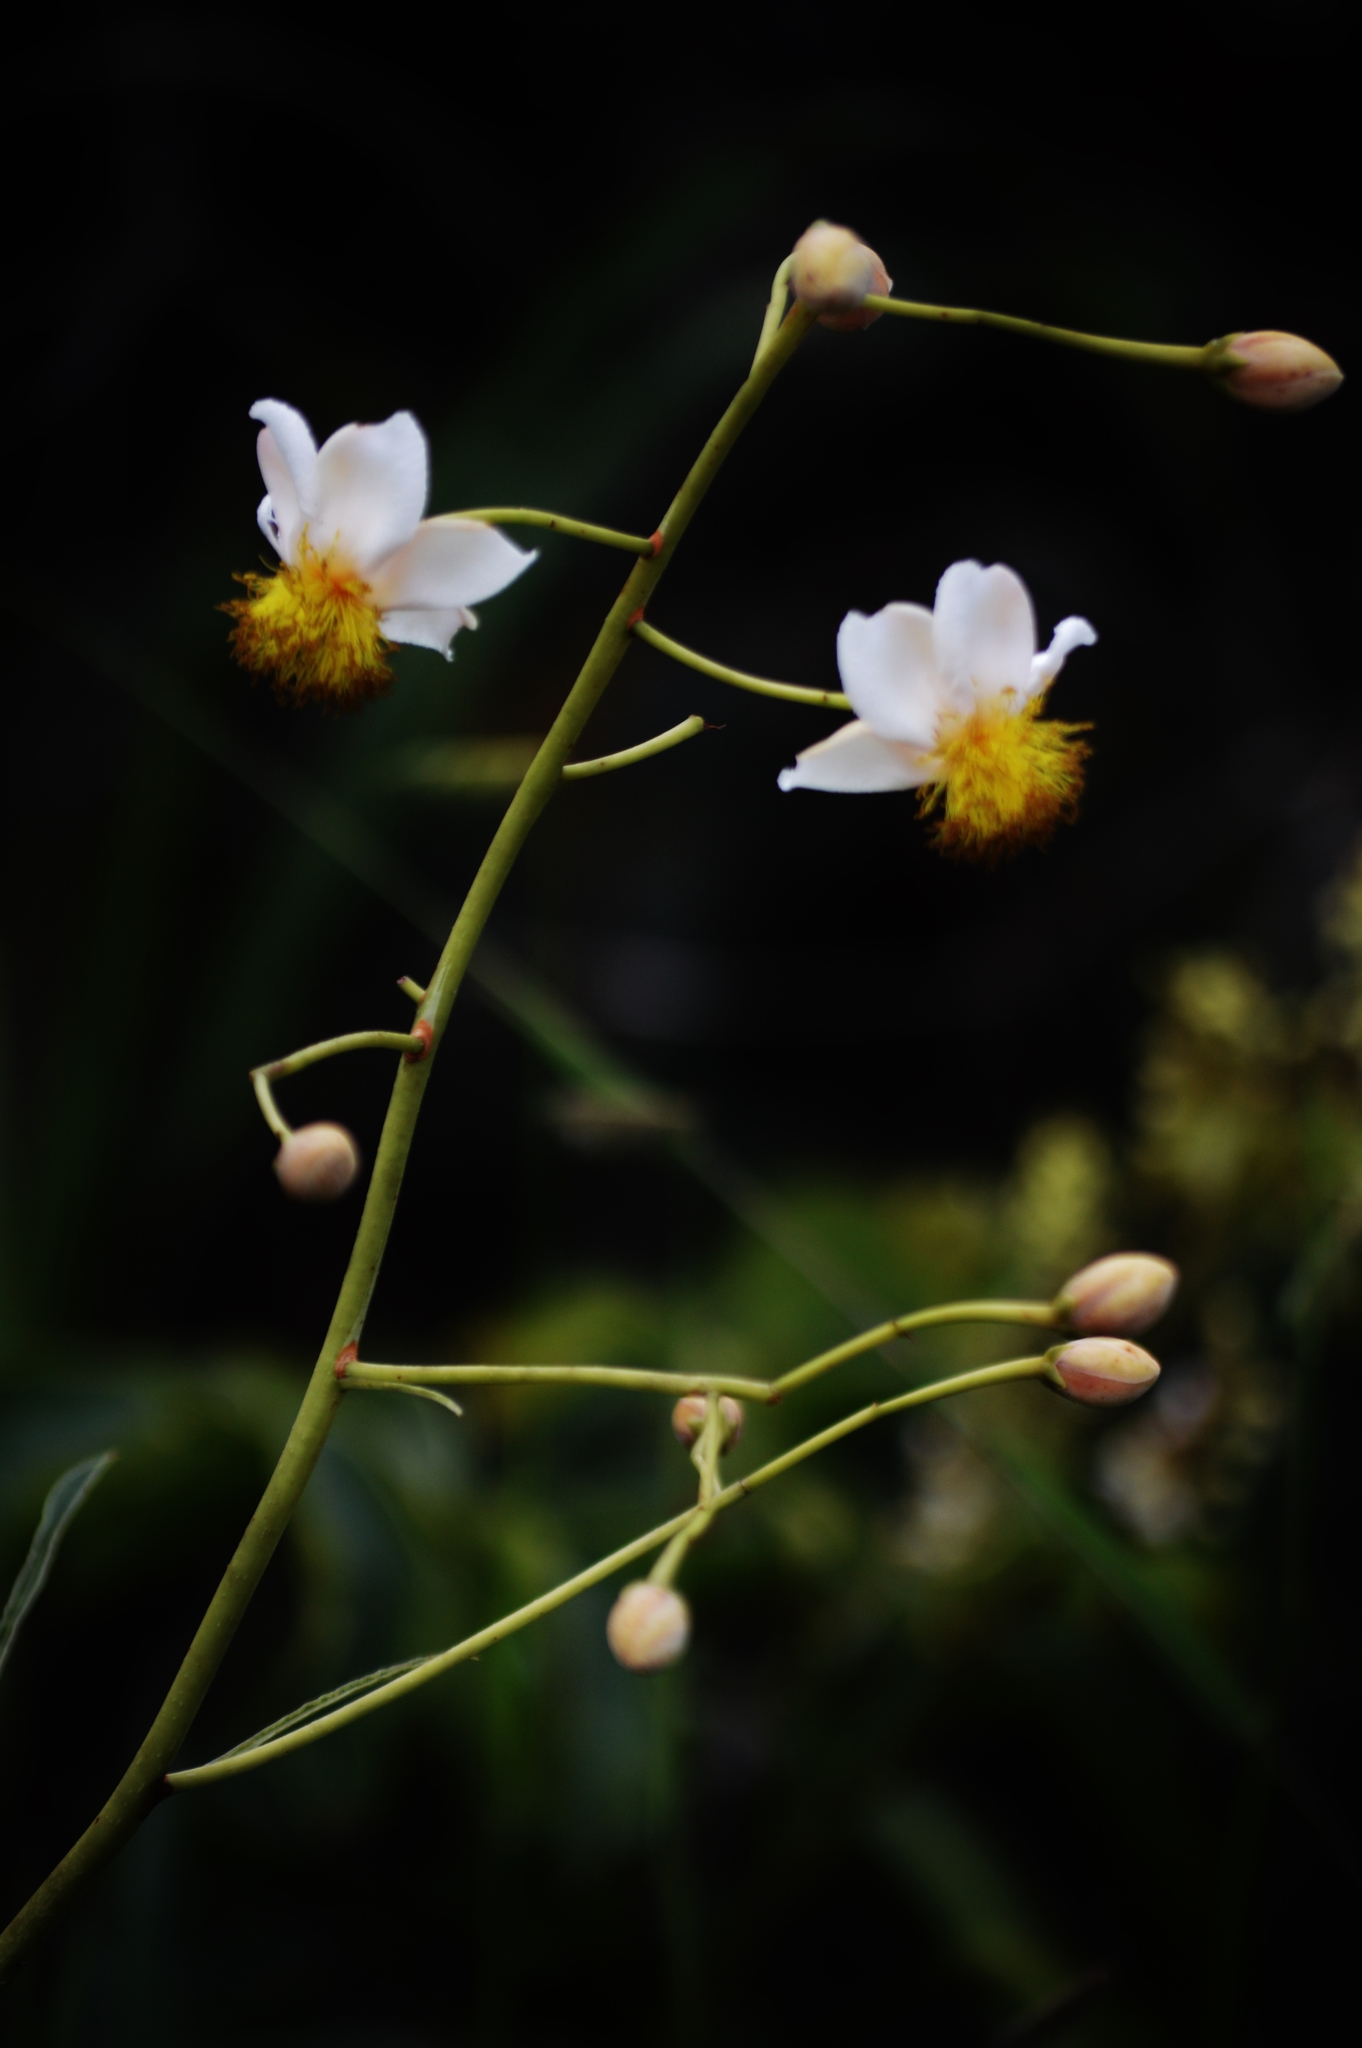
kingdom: Plantae
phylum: Tracheophyta
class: Magnoliopsida
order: Malpighiales
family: Calophyllaceae
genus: Kielmeyera
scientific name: Kielmeyera abdita
